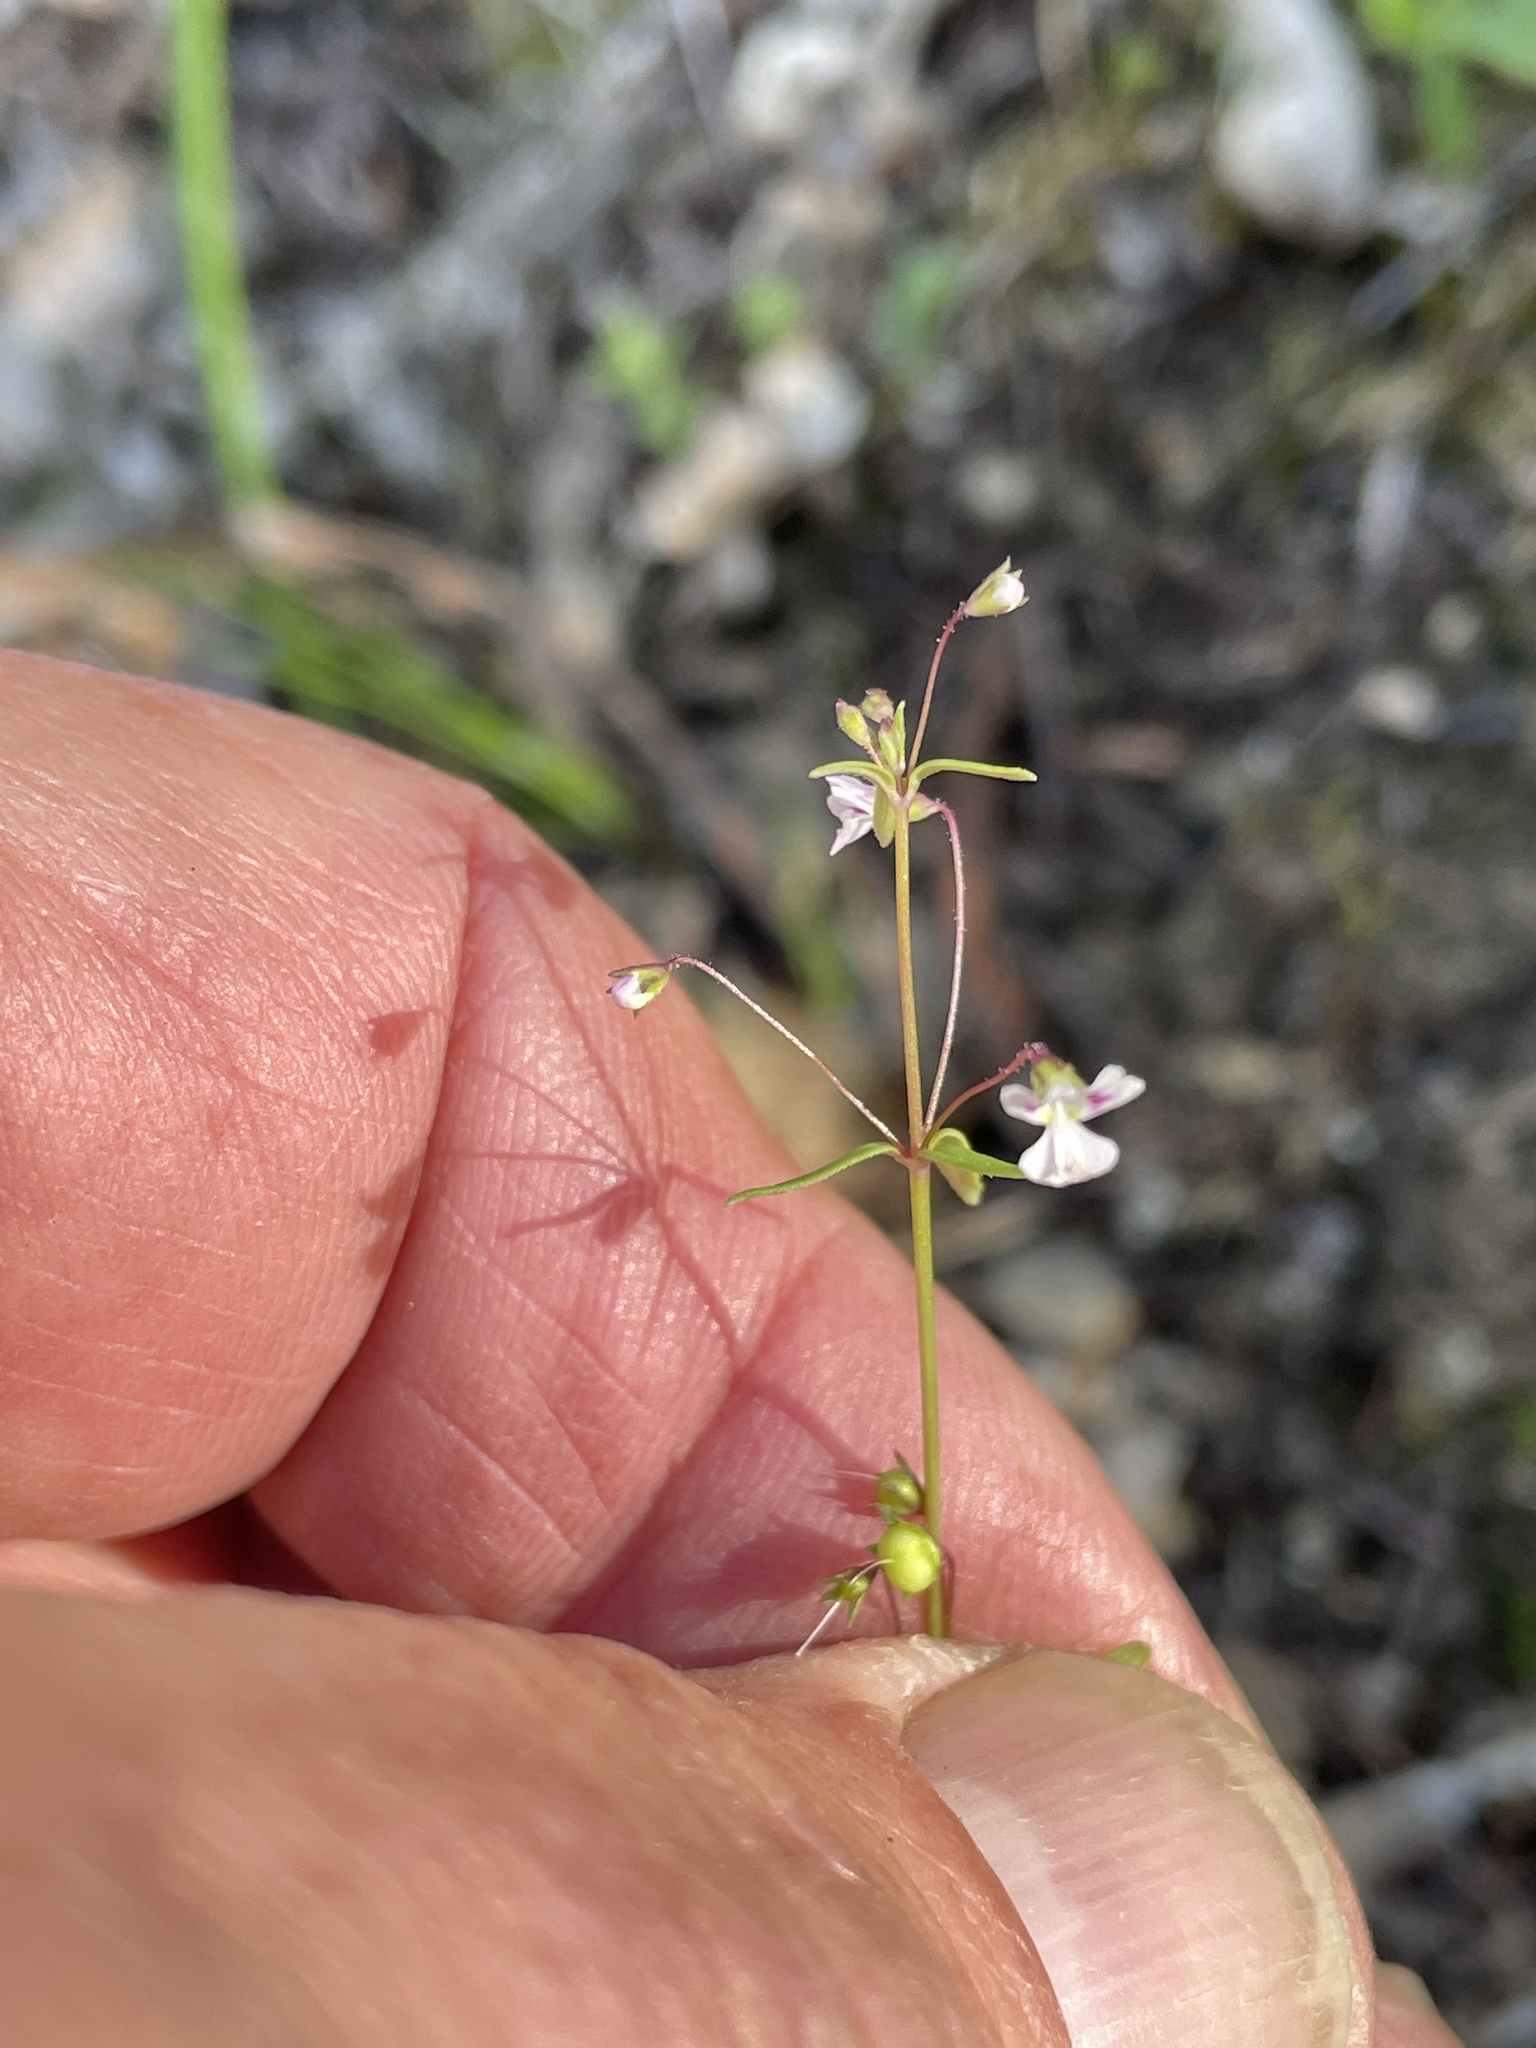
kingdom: Plantae
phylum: Tracheophyta
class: Magnoliopsida
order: Lamiales
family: Plantaginaceae
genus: Tonella
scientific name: Tonella tenella
